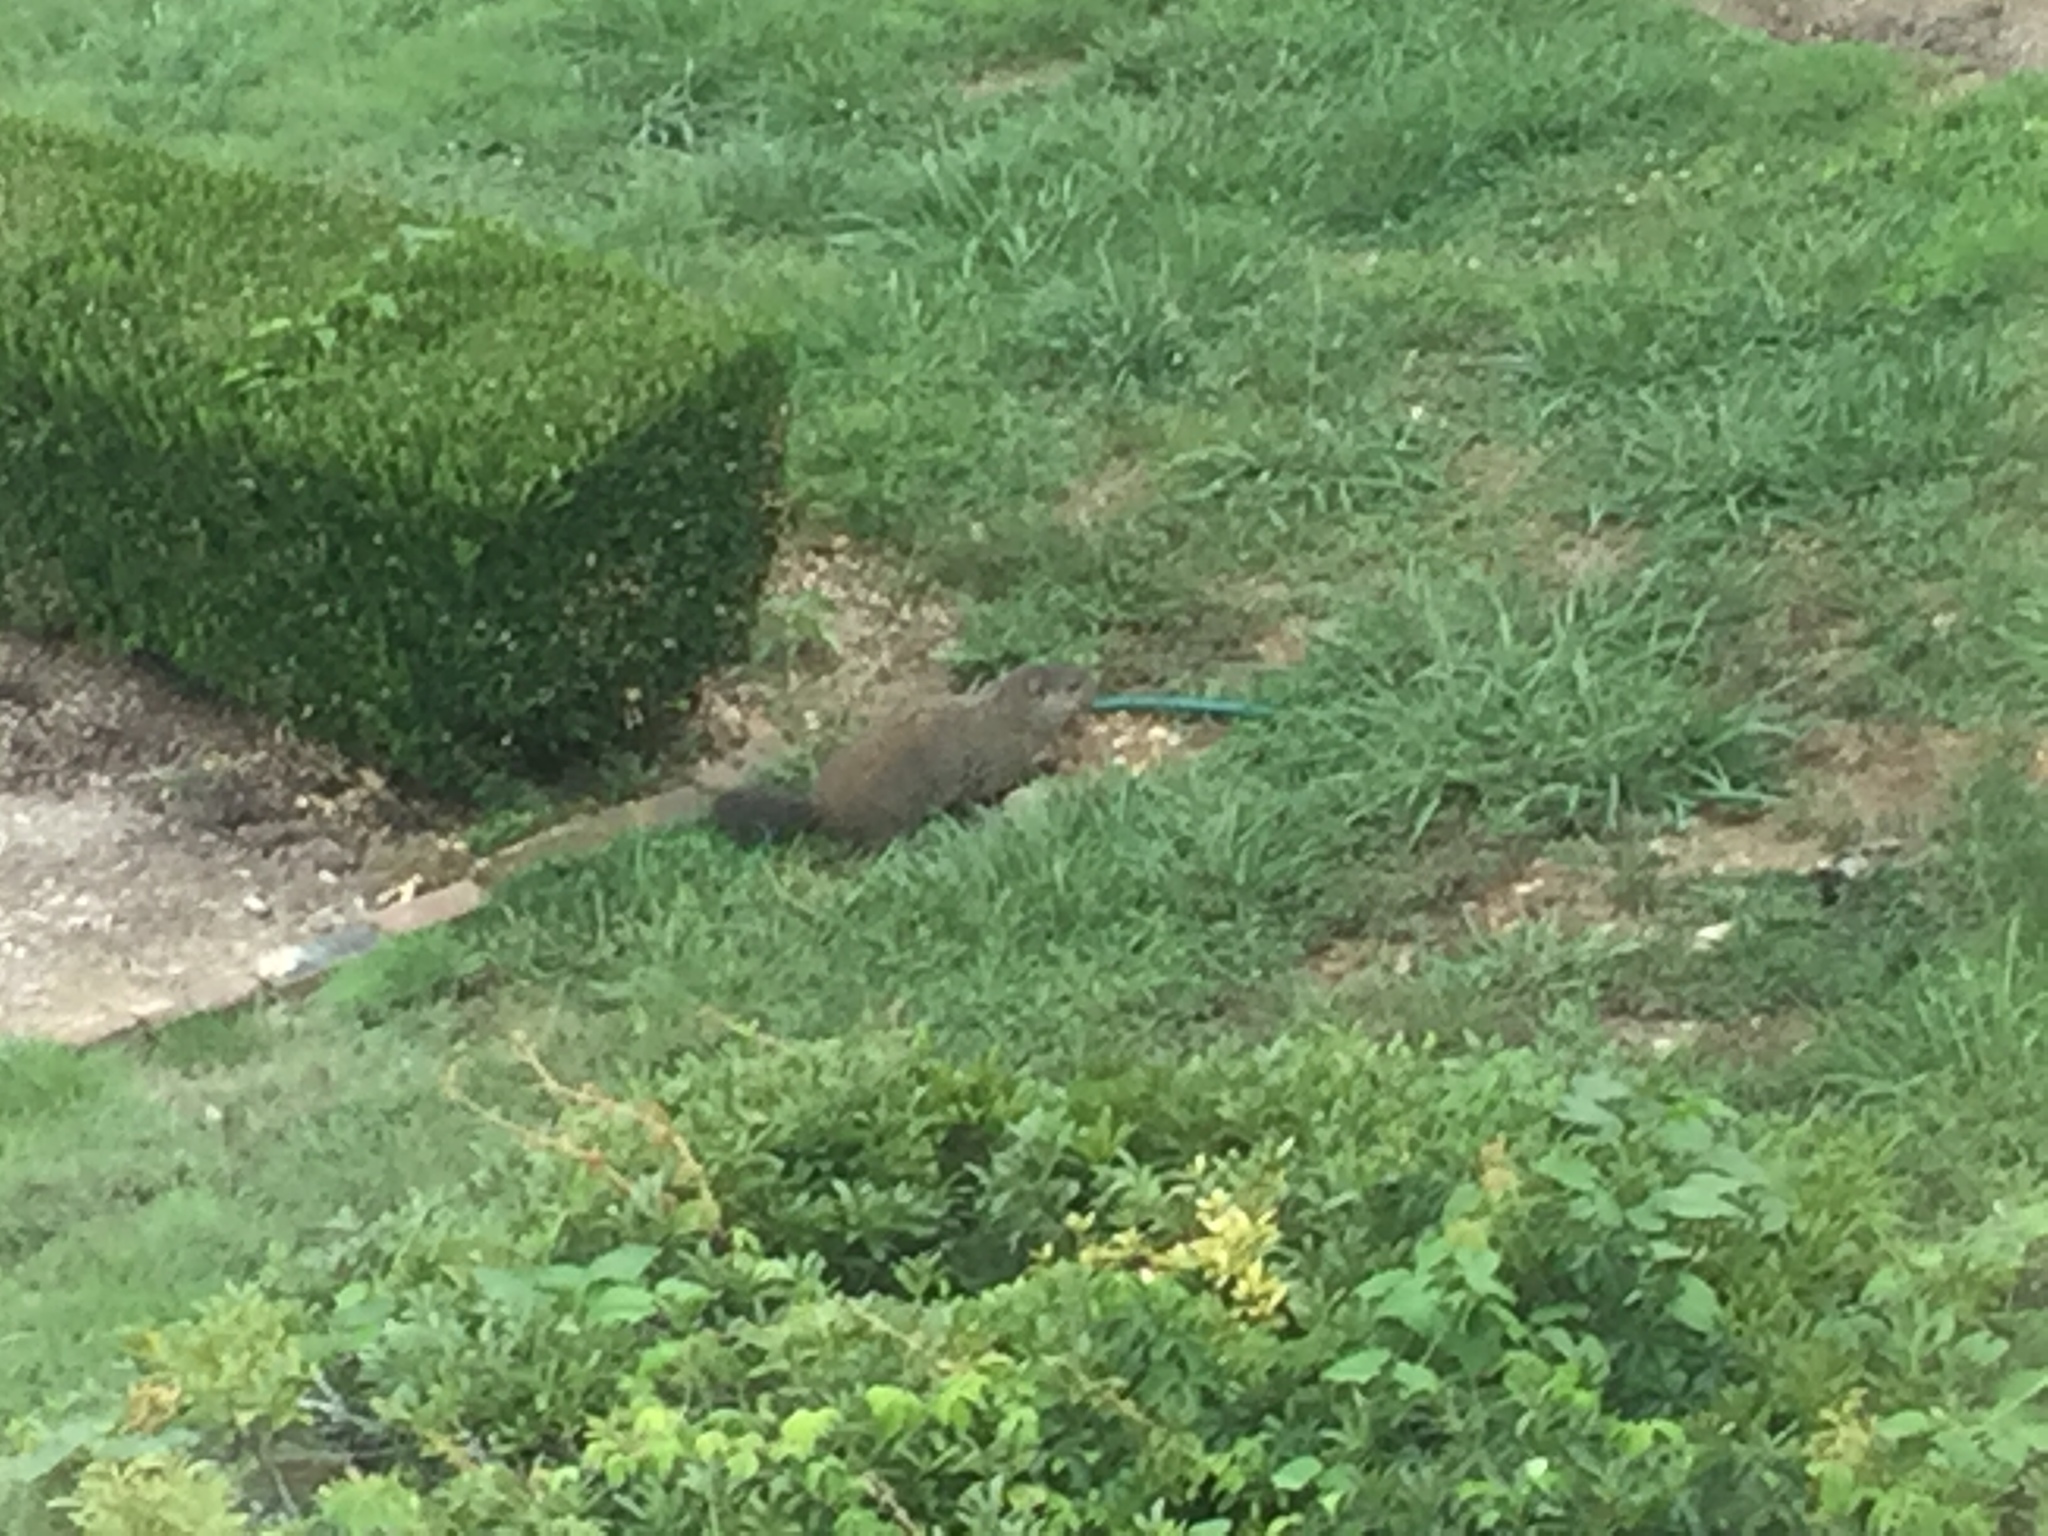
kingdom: Animalia
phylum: Chordata
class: Mammalia
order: Rodentia
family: Sciuridae
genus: Marmota
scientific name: Marmota monax
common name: Groundhog
